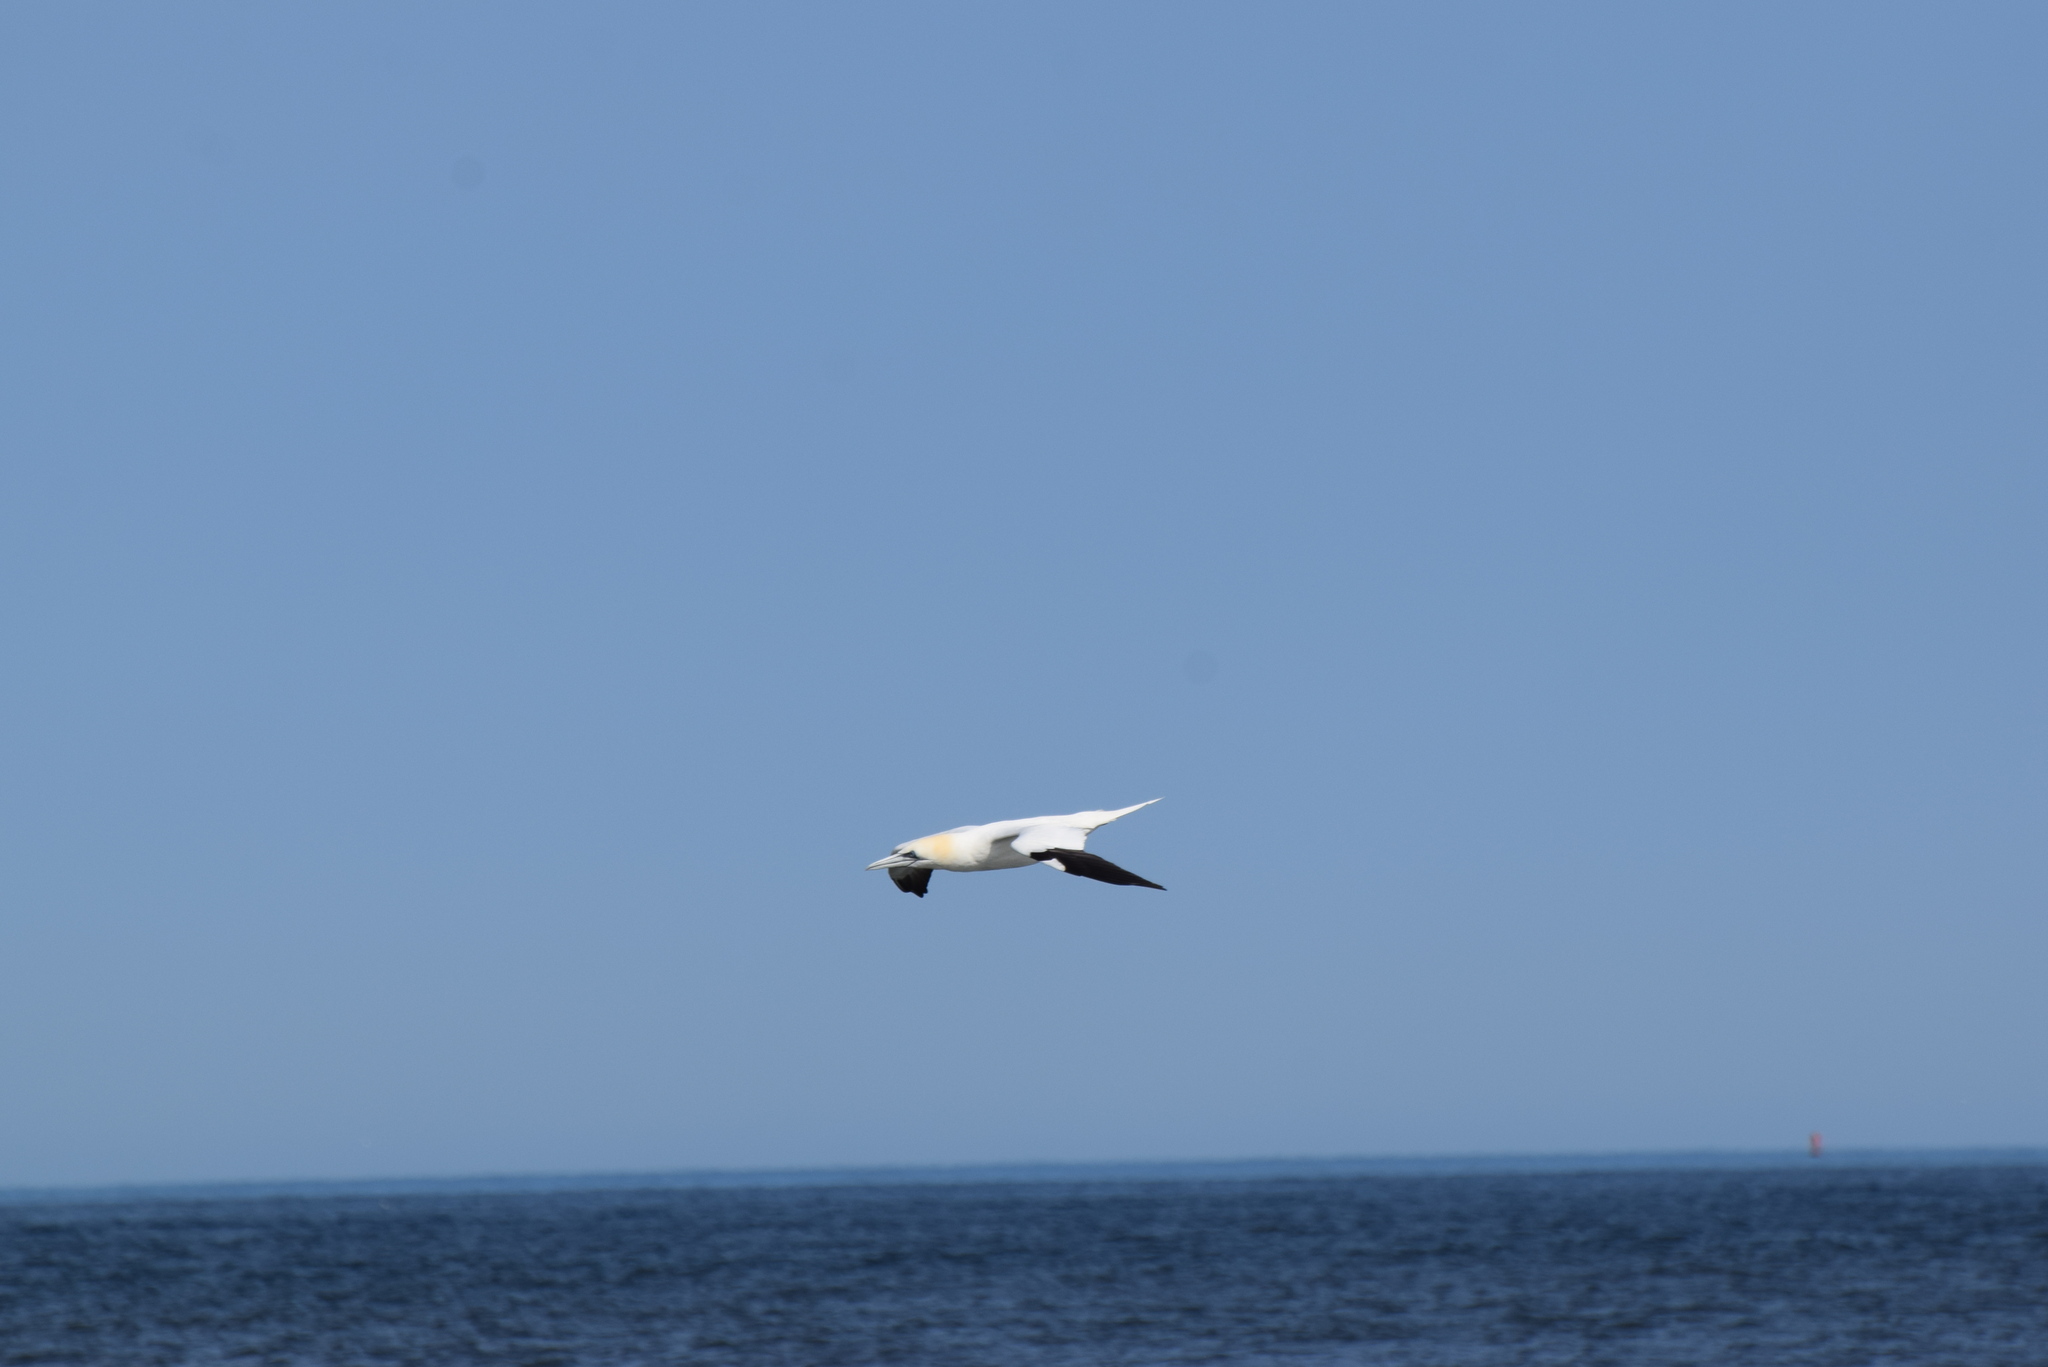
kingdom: Animalia
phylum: Chordata
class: Aves
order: Suliformes
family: Sulidae
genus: Morus
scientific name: Morus bassanus
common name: Northern gannet
